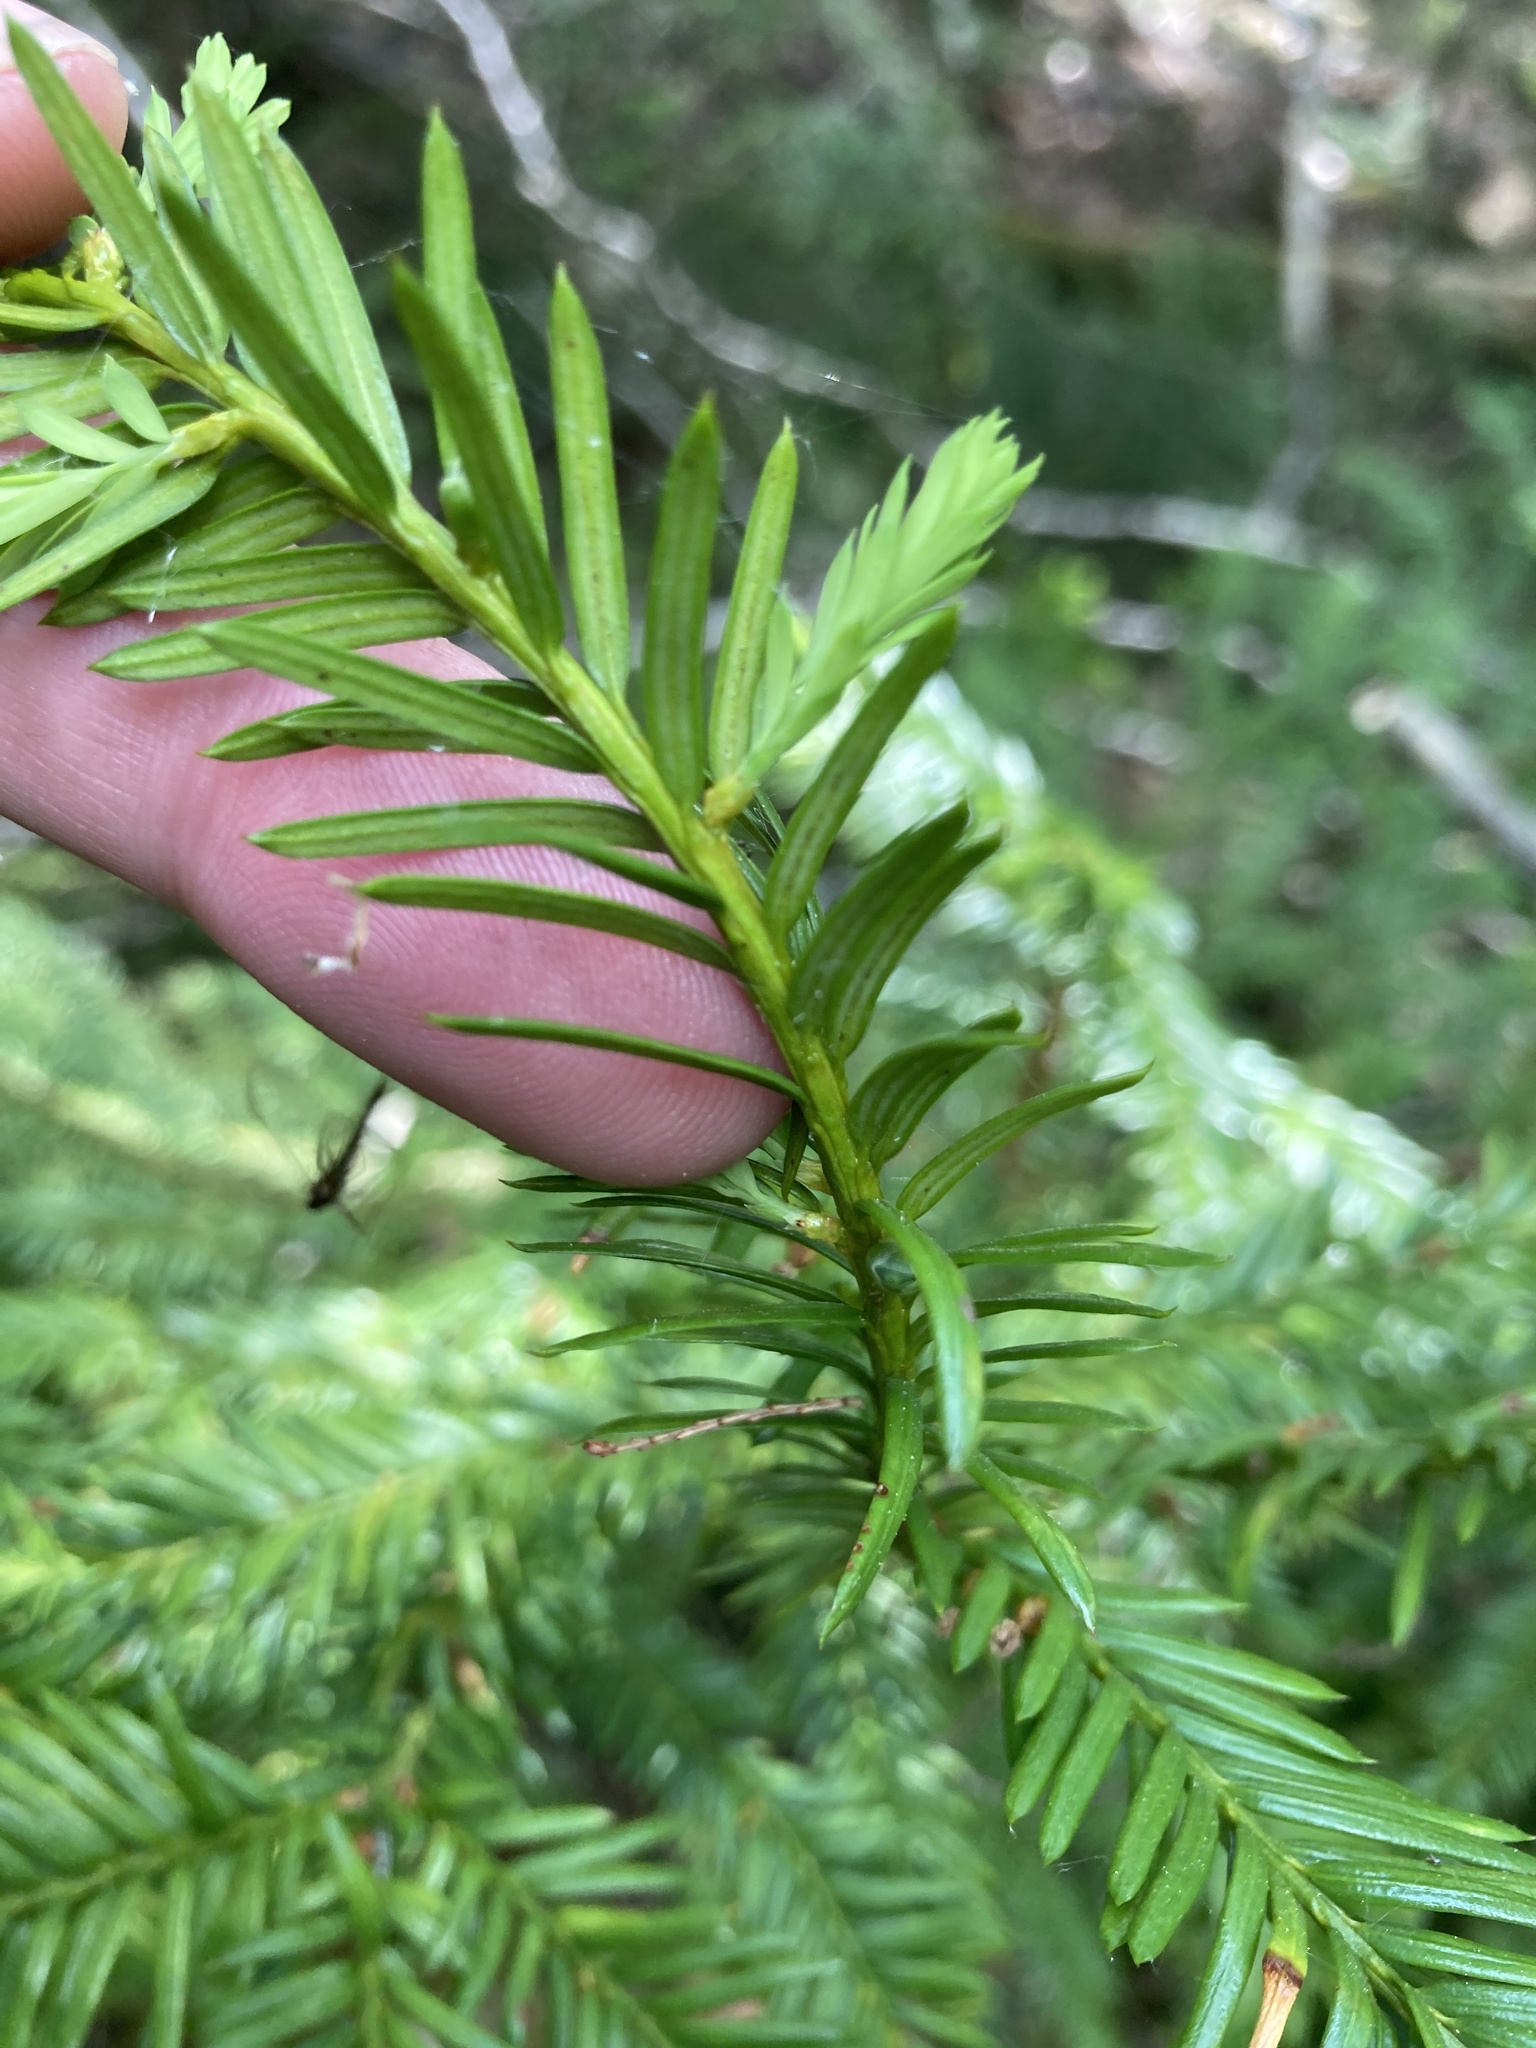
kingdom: Plantae
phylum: Tracheophyta
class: Pinopsida
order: Pinales
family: Taxaceae
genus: Taxus
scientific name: Taxus canadensis
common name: American yew
